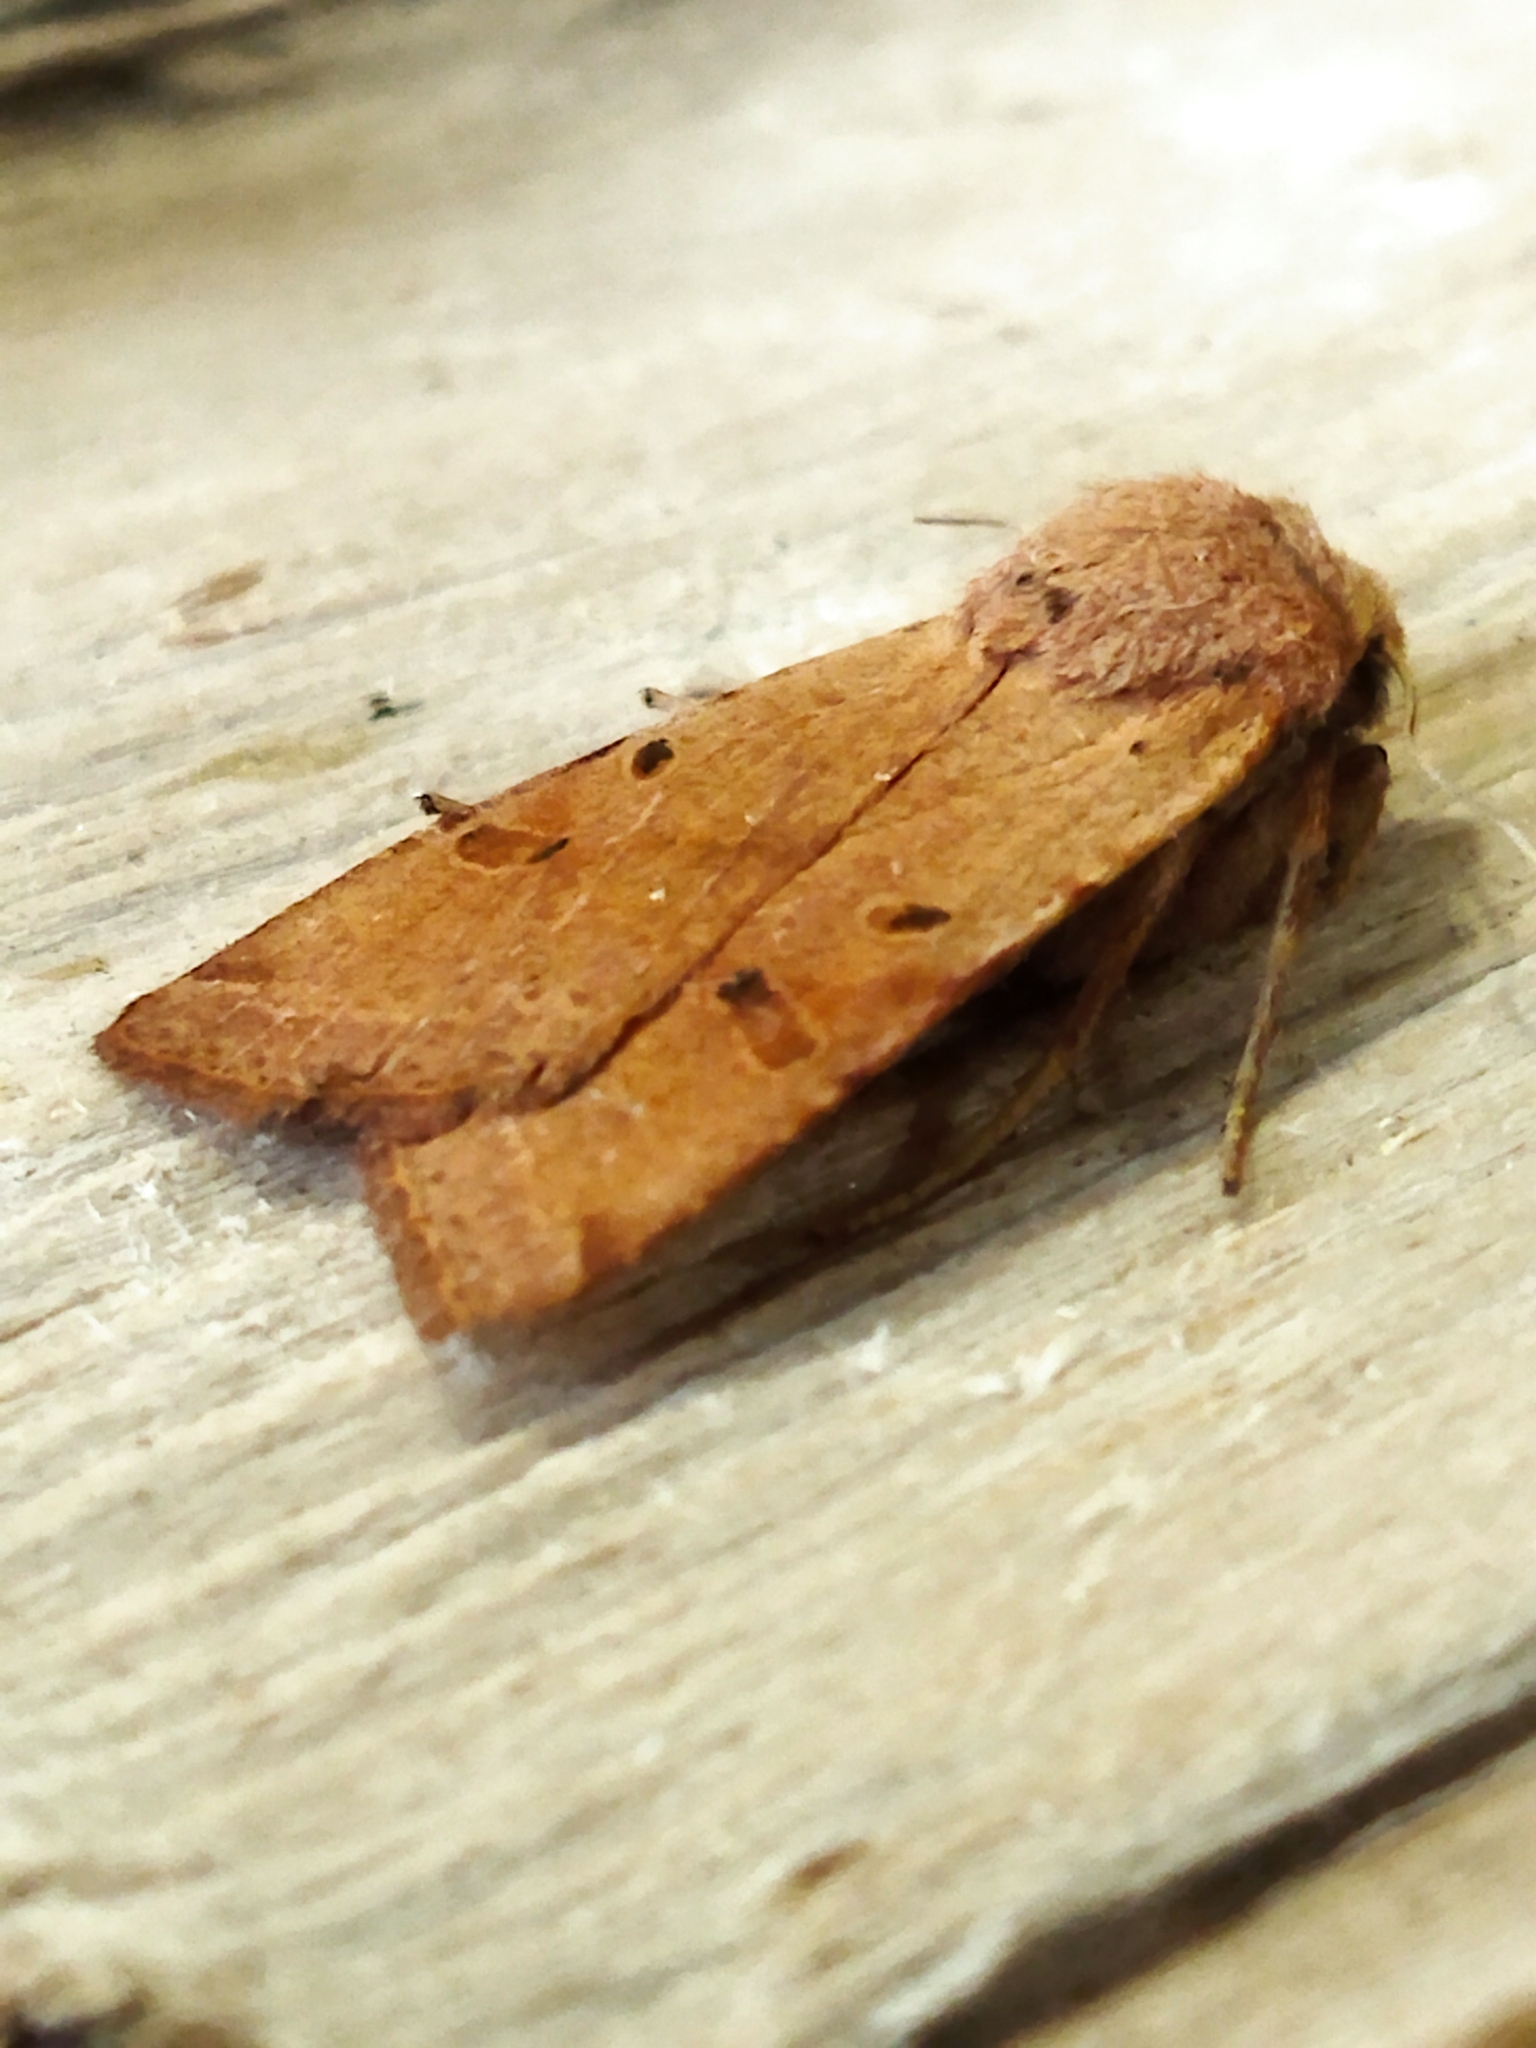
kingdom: Animalia
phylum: Arthropoda
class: Insecta
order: Lepidoptera
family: Noctuidae
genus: Agrochola
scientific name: Agrochola lychnidis
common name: Beaded chestnut
